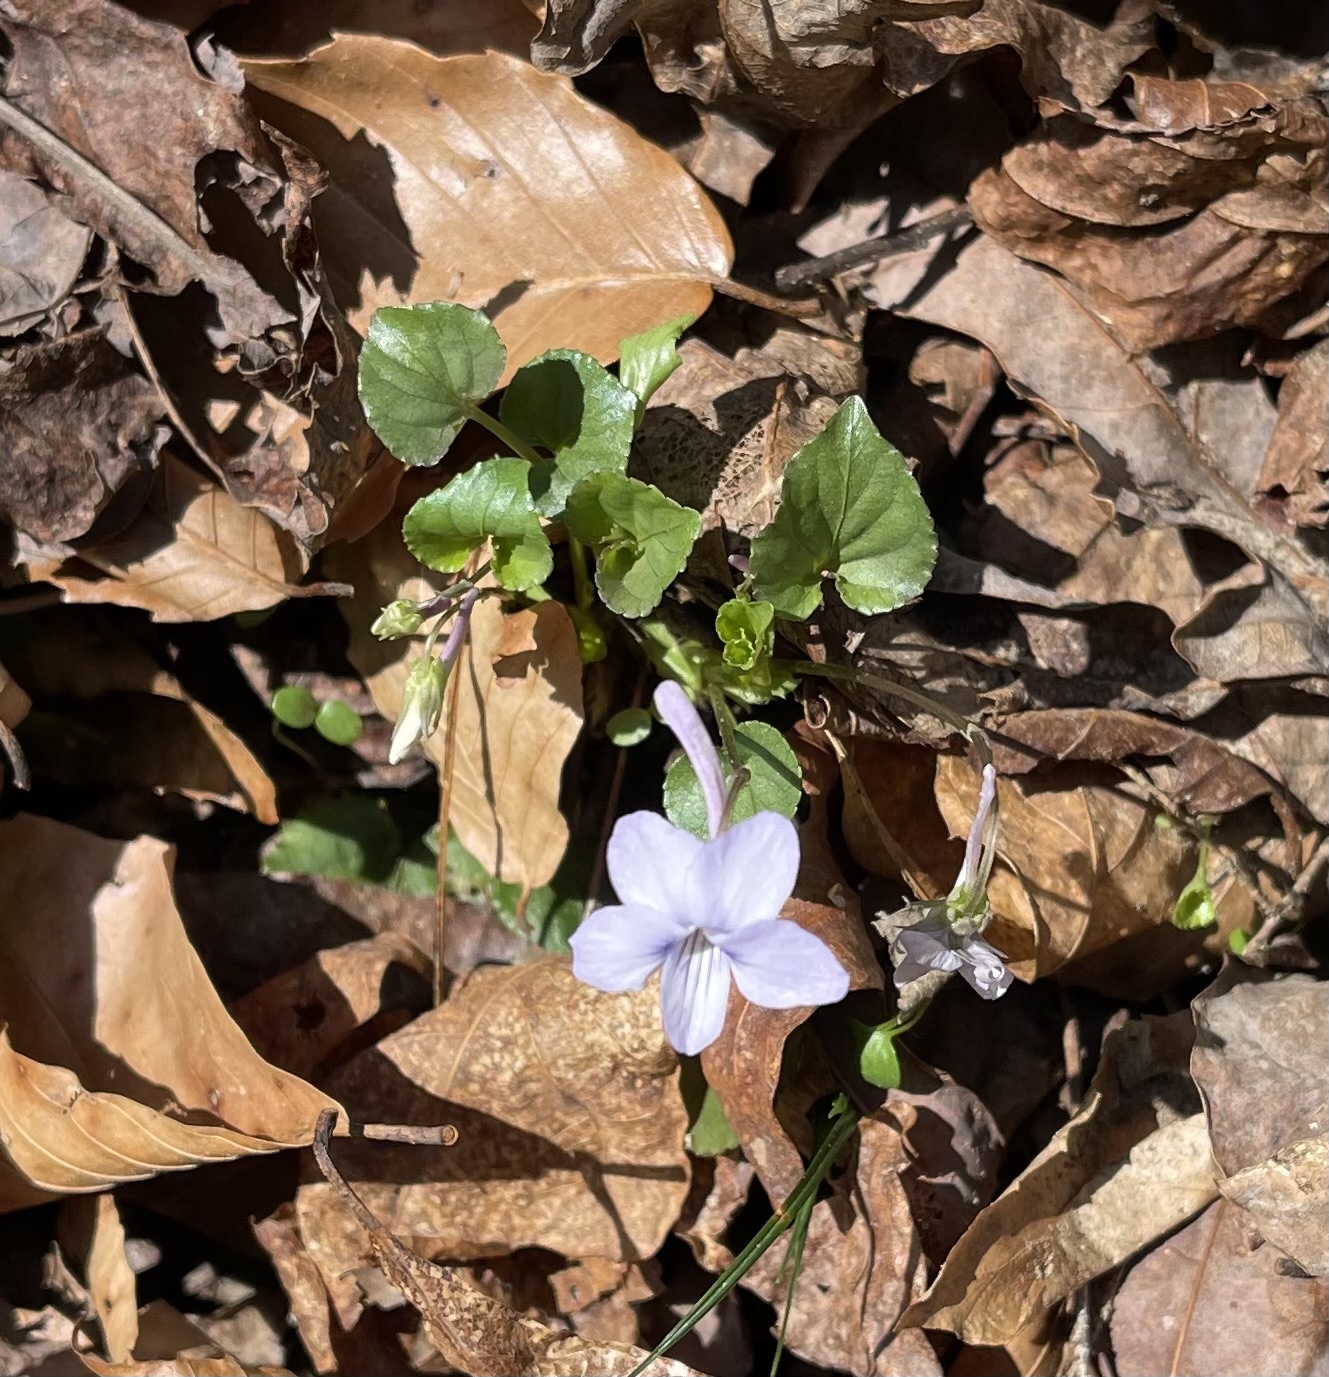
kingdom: Plantae
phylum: Tracheophyta
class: Magnoliopsida
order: Malpighiales
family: Violaceae
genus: Viola
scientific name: Viola rostrata
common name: Long-spur violet
